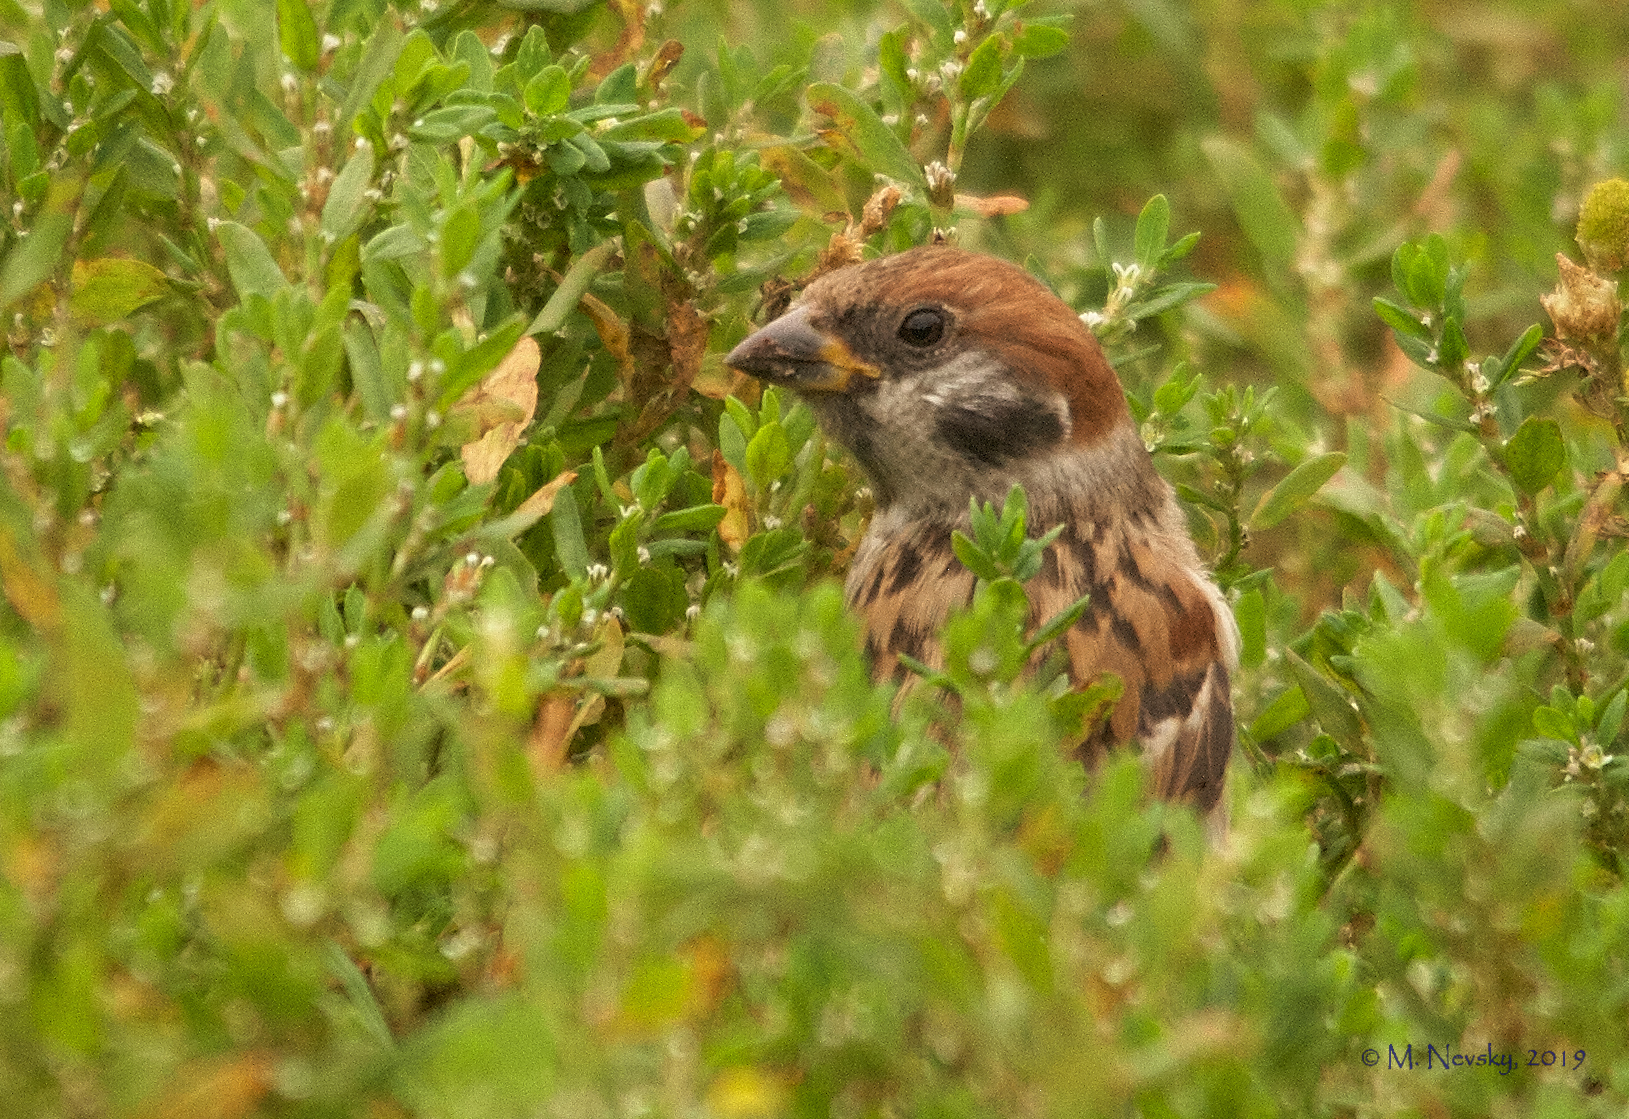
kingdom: Animalia
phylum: Chordata
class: Aves
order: Passeriformes
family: Passeridae
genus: Passer
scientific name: Passer montanus
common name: Eurasian tree sparrow
